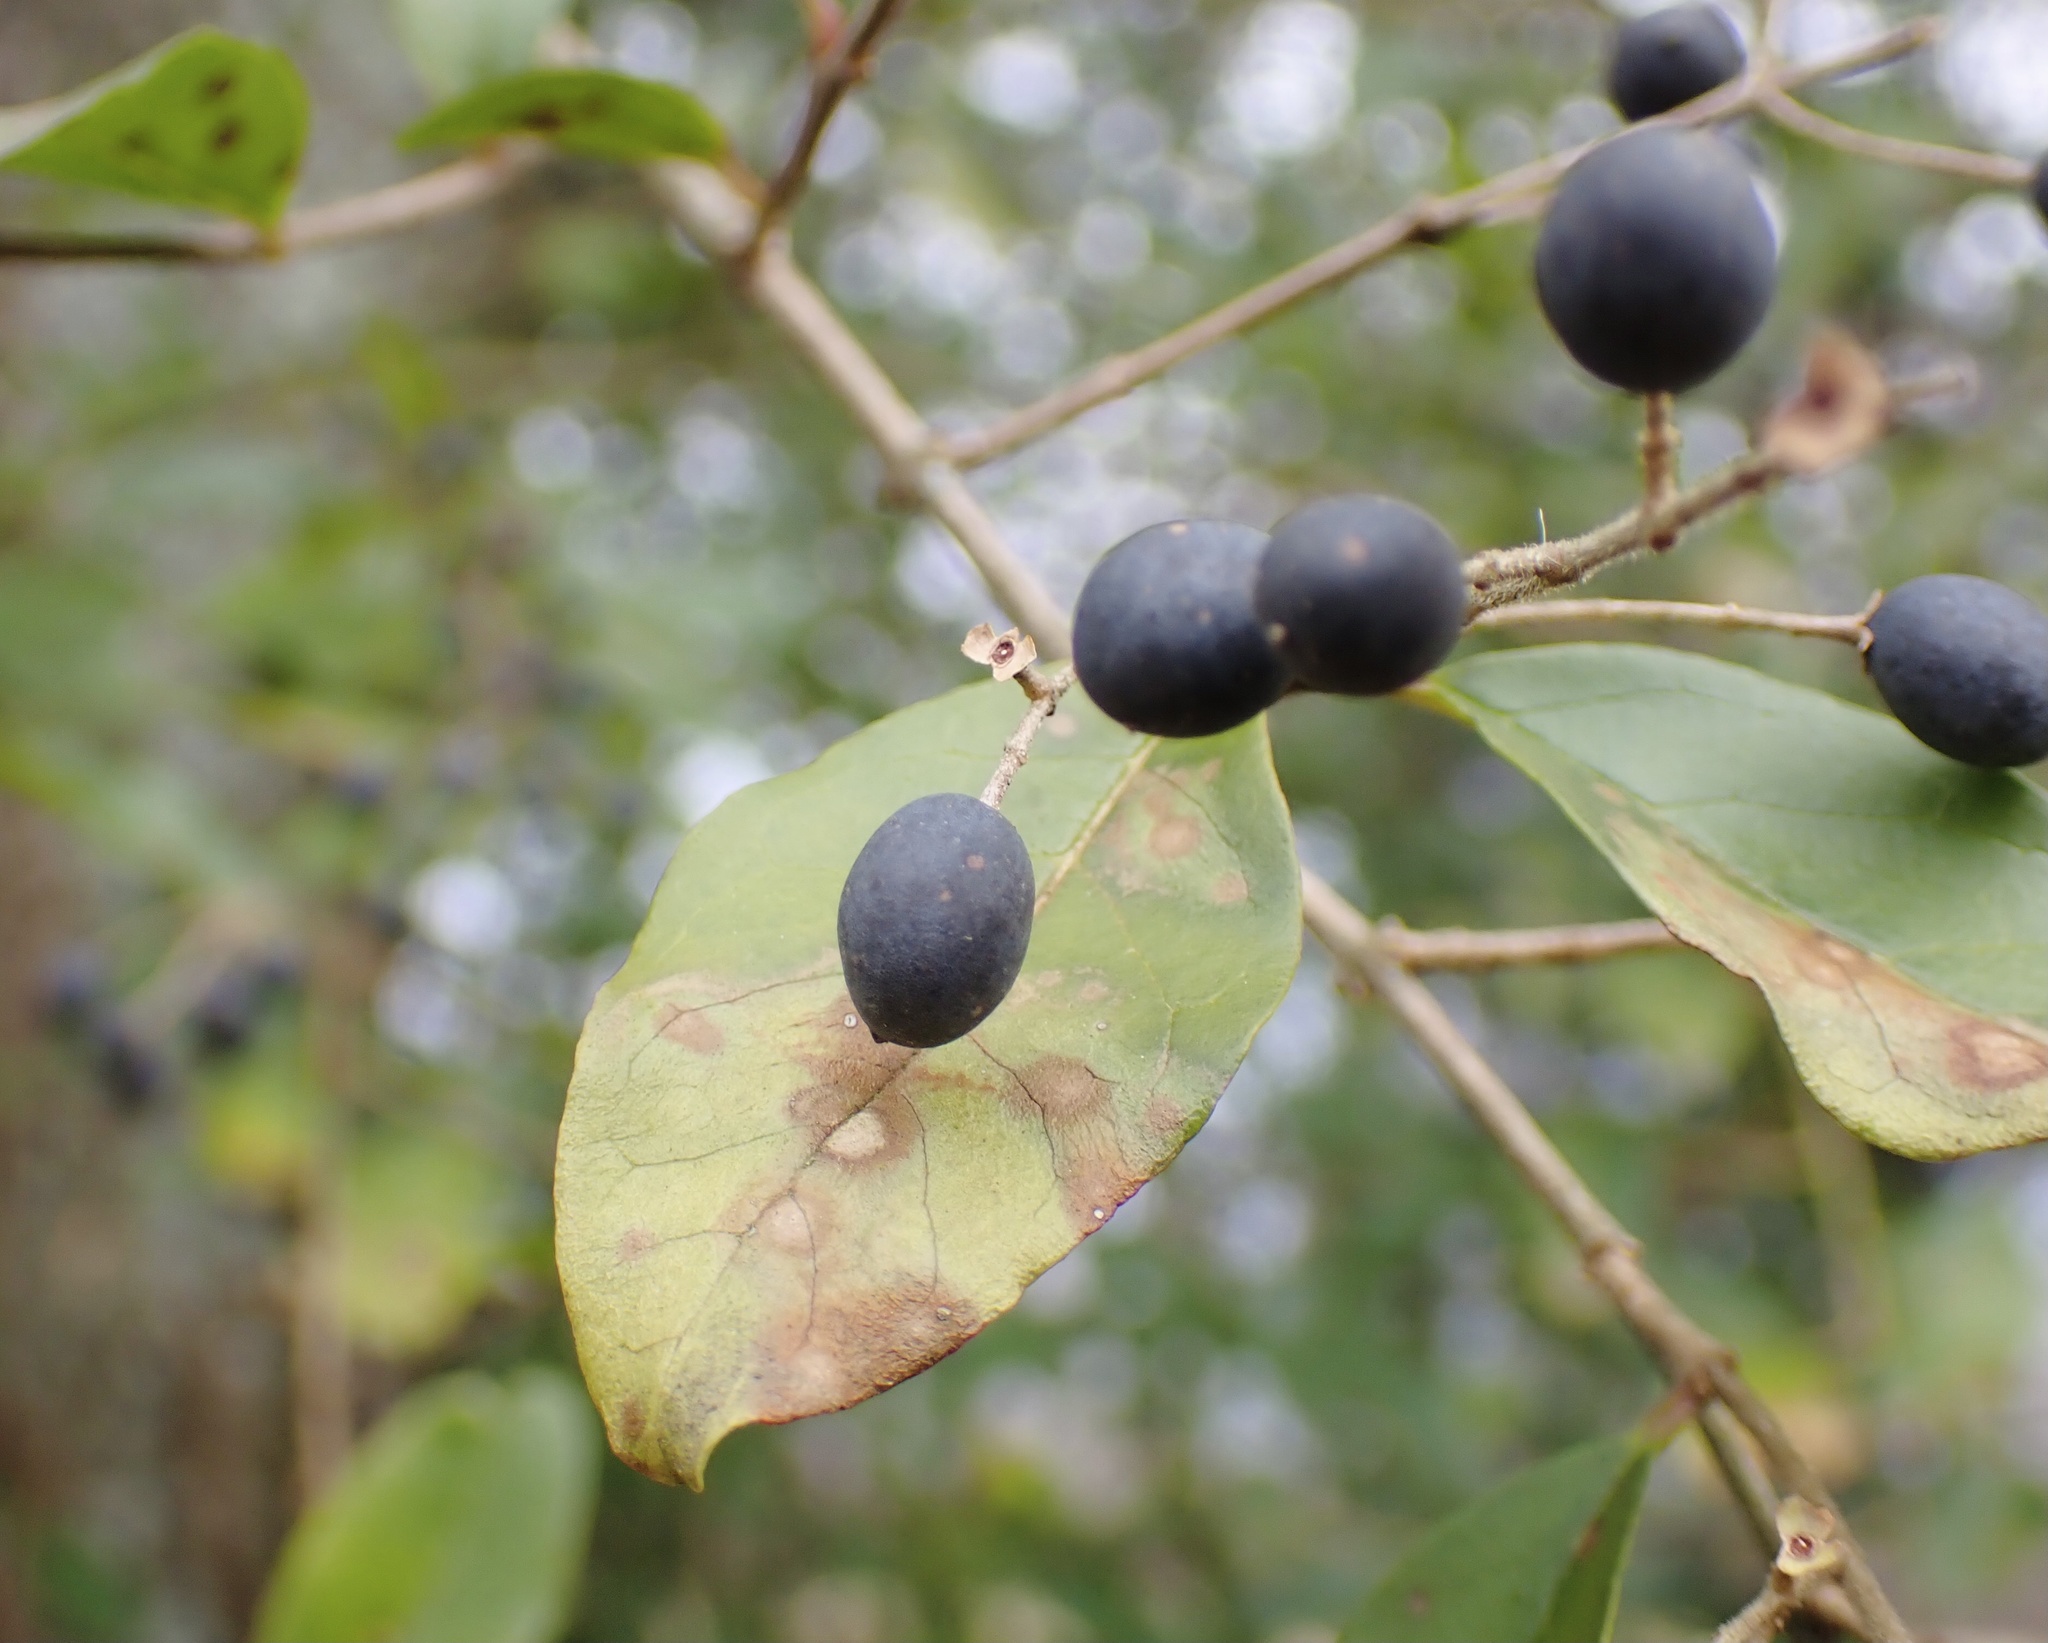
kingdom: Plantae
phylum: Tracheophyta
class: Magnoliopsida
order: Lamiales
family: Oleaceae
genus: Ligustrum
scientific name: Ligustrum sinense
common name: Chinese privet
